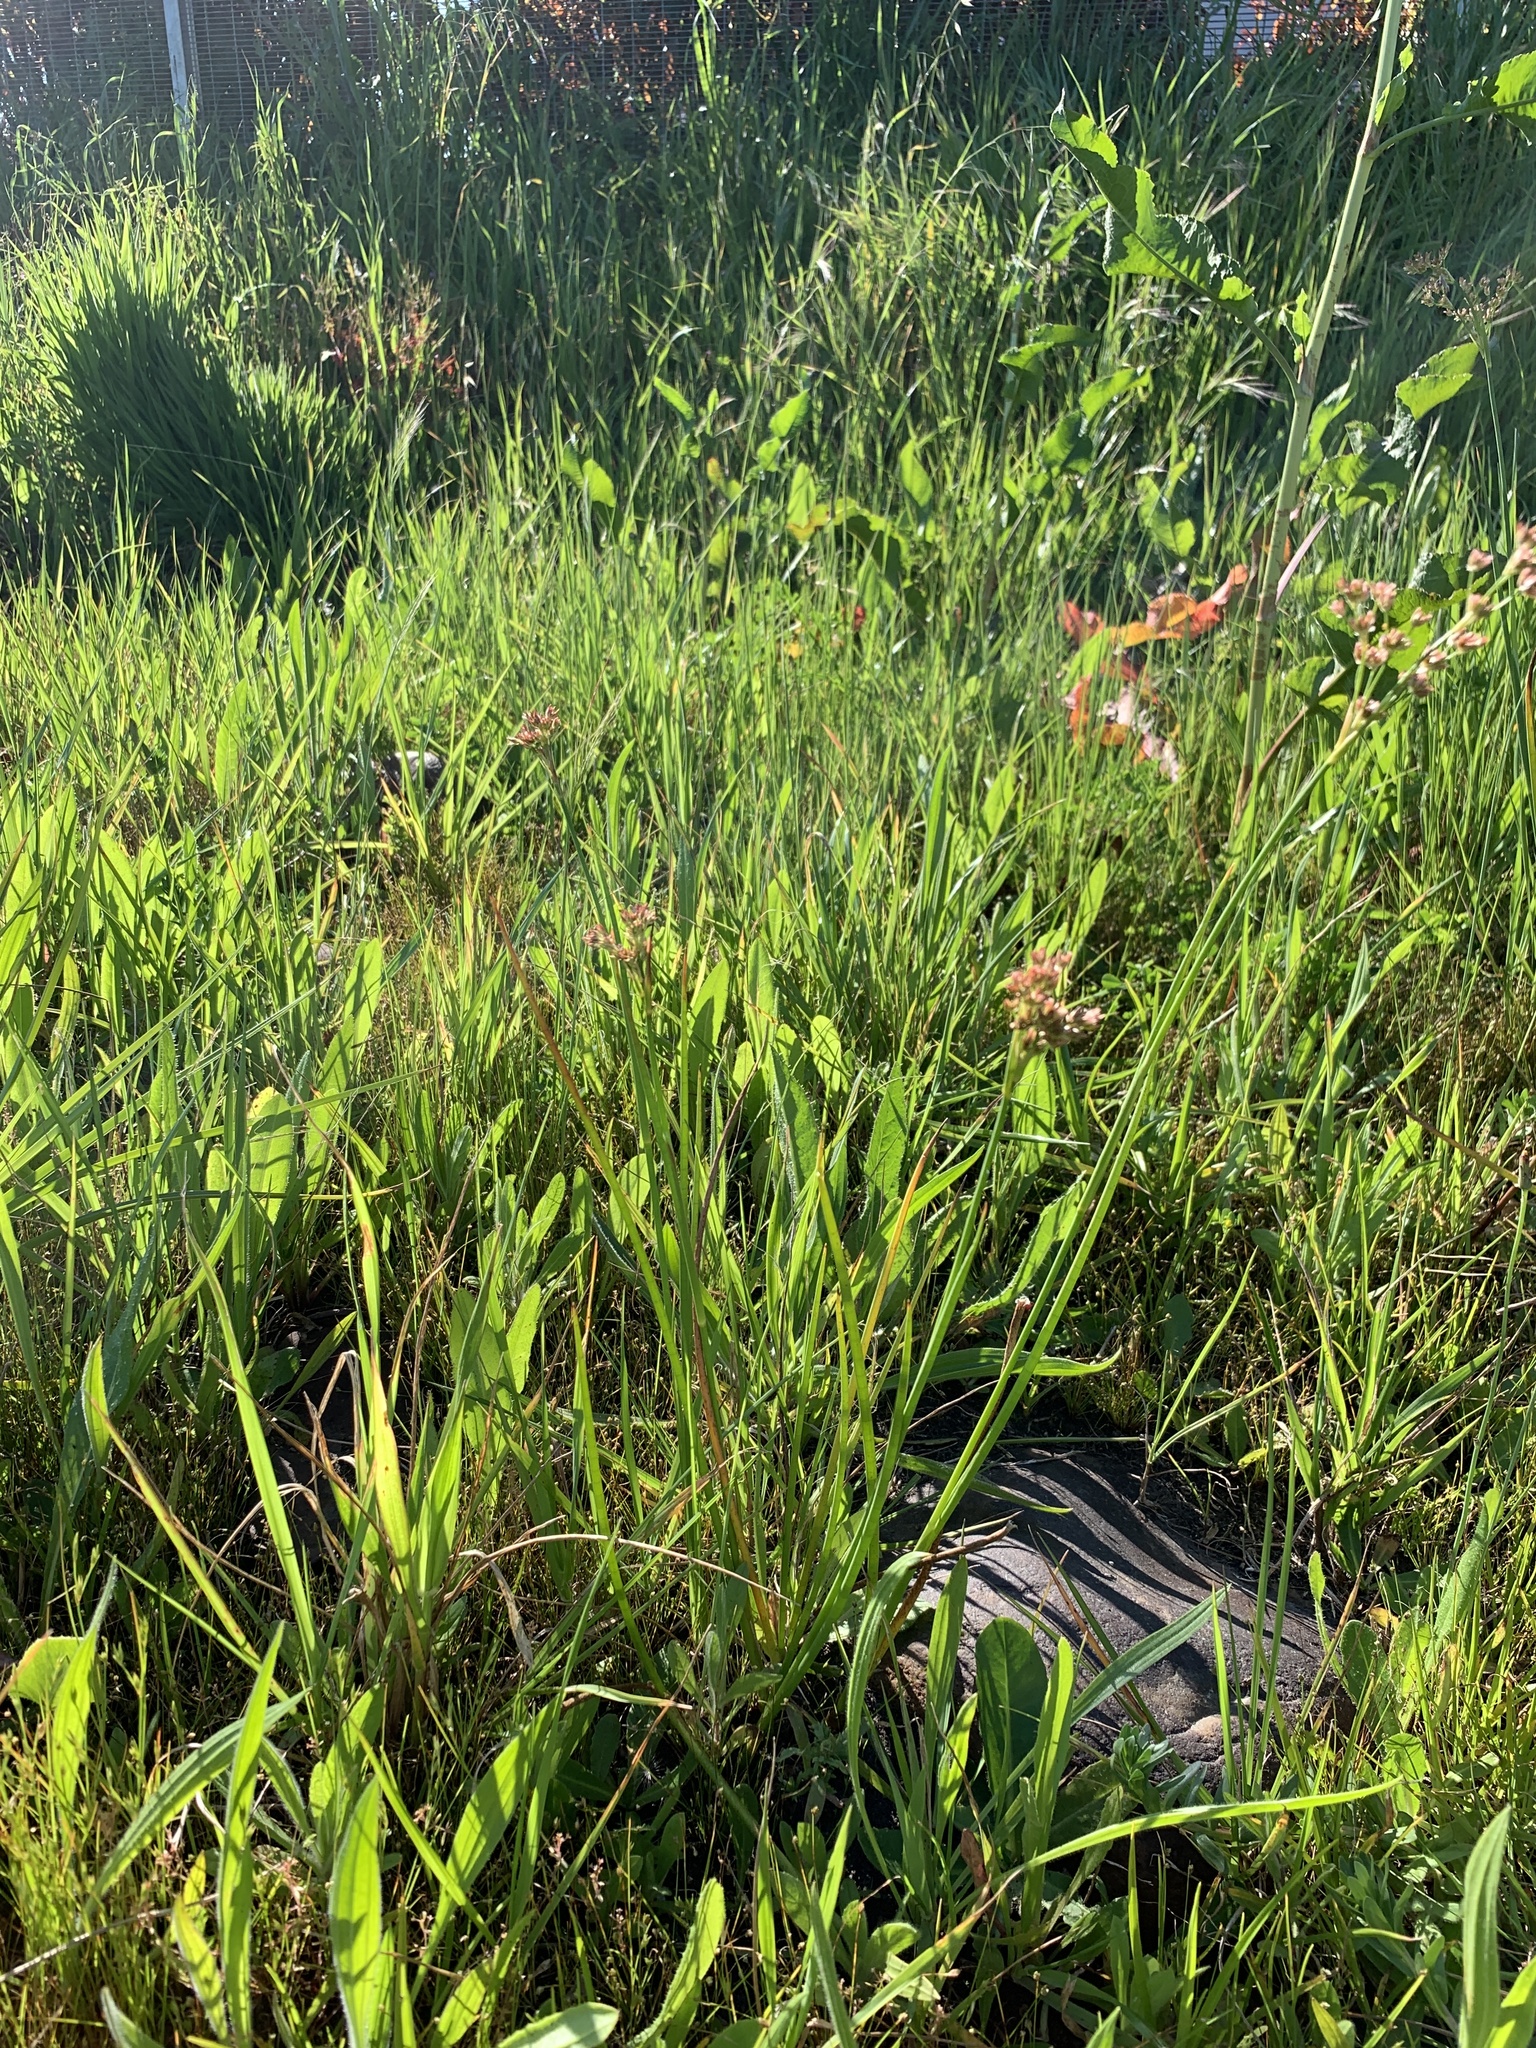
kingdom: Plantae
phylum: Tracheophyta
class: Liliopsida
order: Poales
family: Juncaceae
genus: Juncus
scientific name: Juncus oxycarpus
